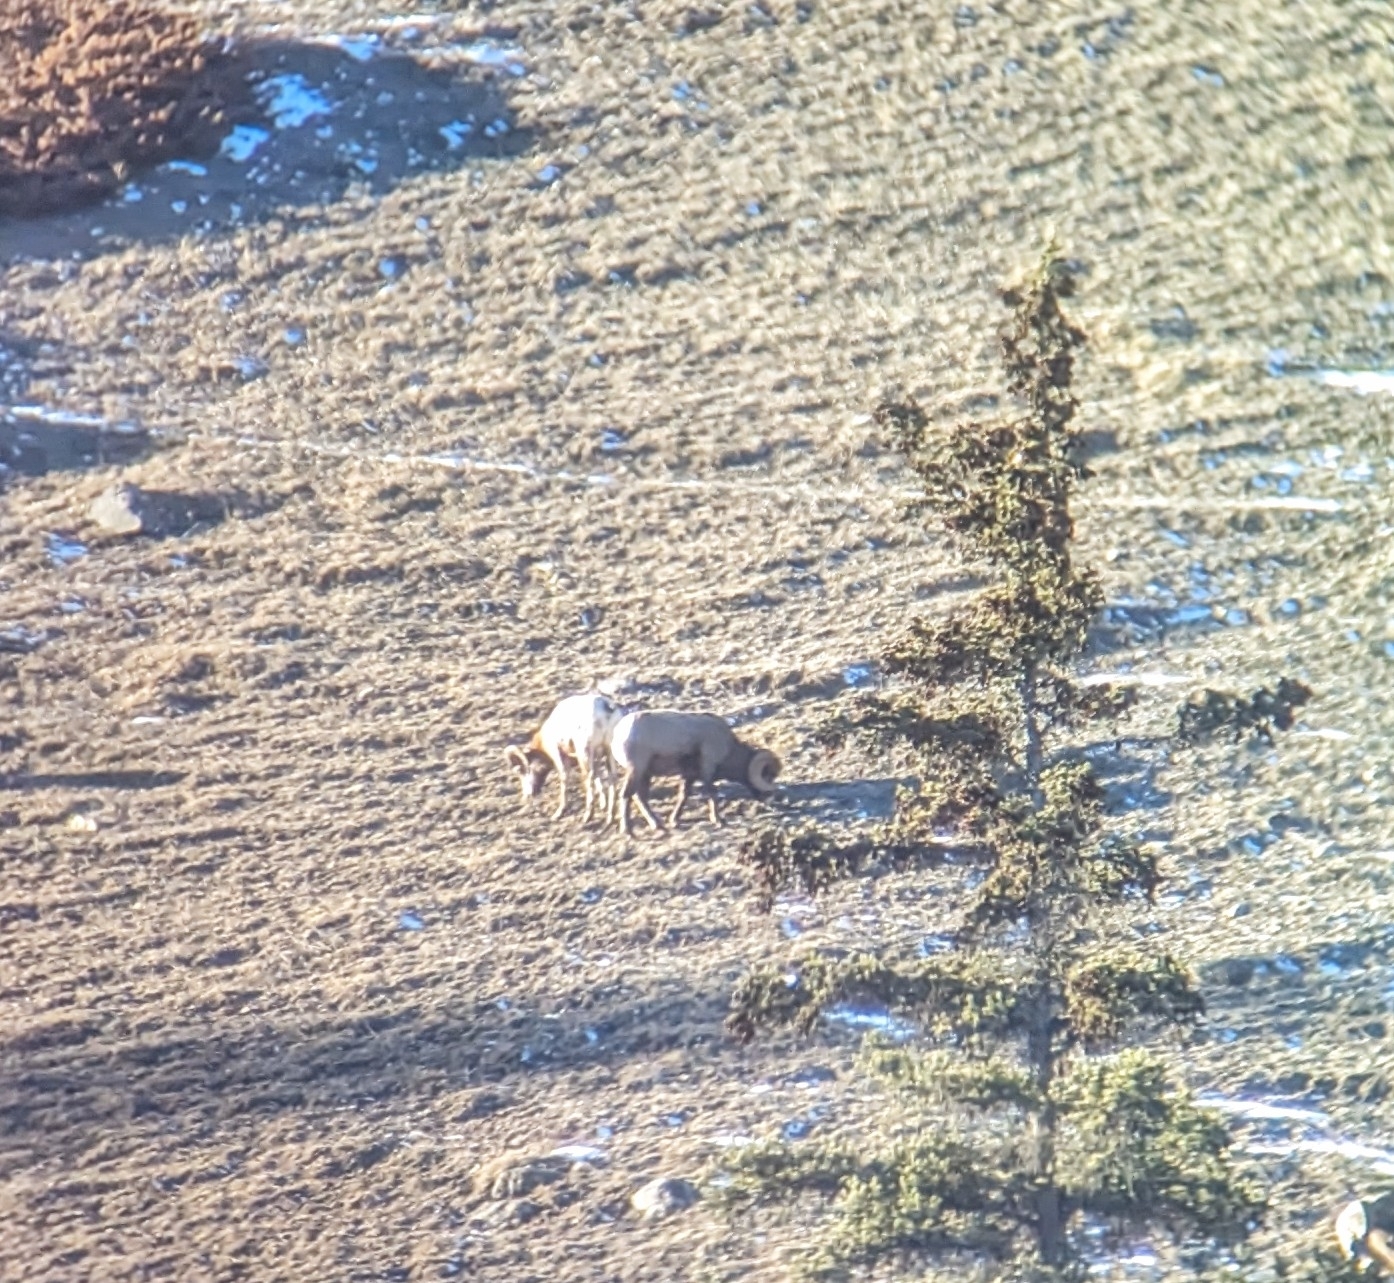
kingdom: Animalia
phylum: Chordata
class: Mammalia
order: Artiodactyla
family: Bovidae
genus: Ovis
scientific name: Ovis canadensis
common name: Bighorn sheep
